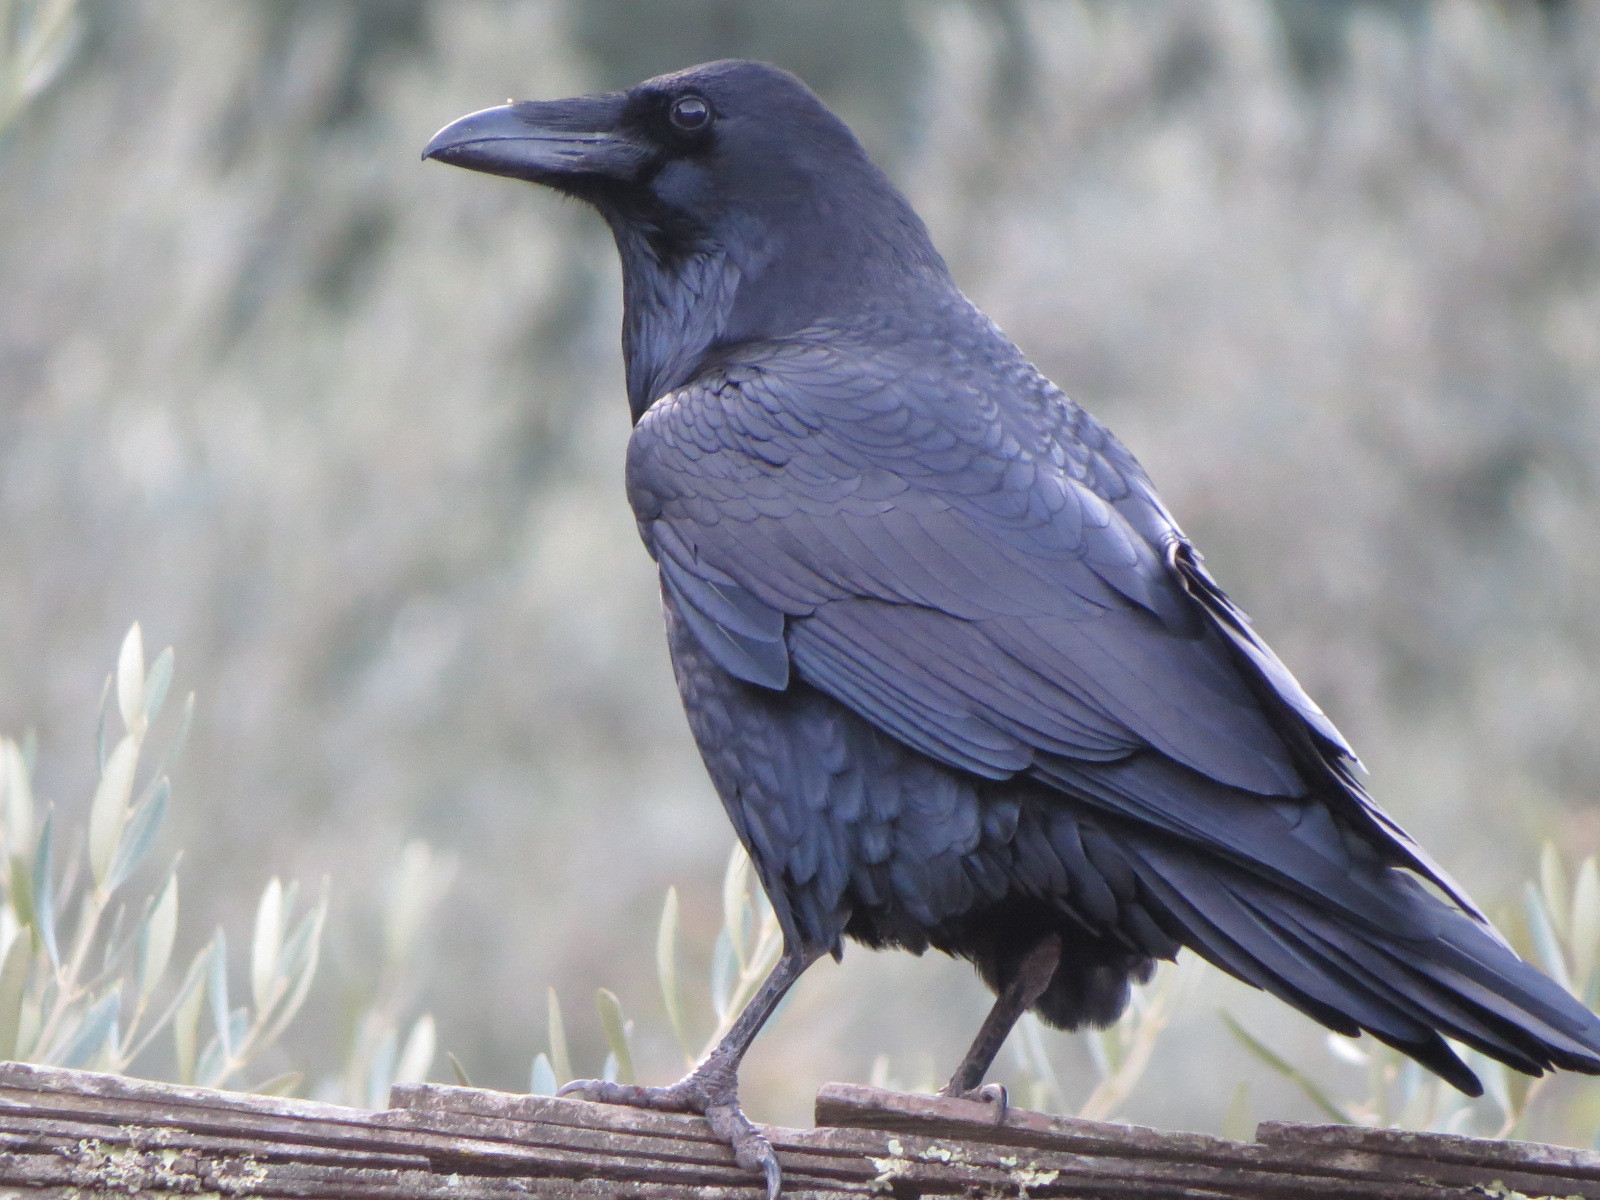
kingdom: Animalia
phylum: Chordata
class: Aves
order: Passeriformes
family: Corvidae
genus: Corvus
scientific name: Corvus corax
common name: Common raven
